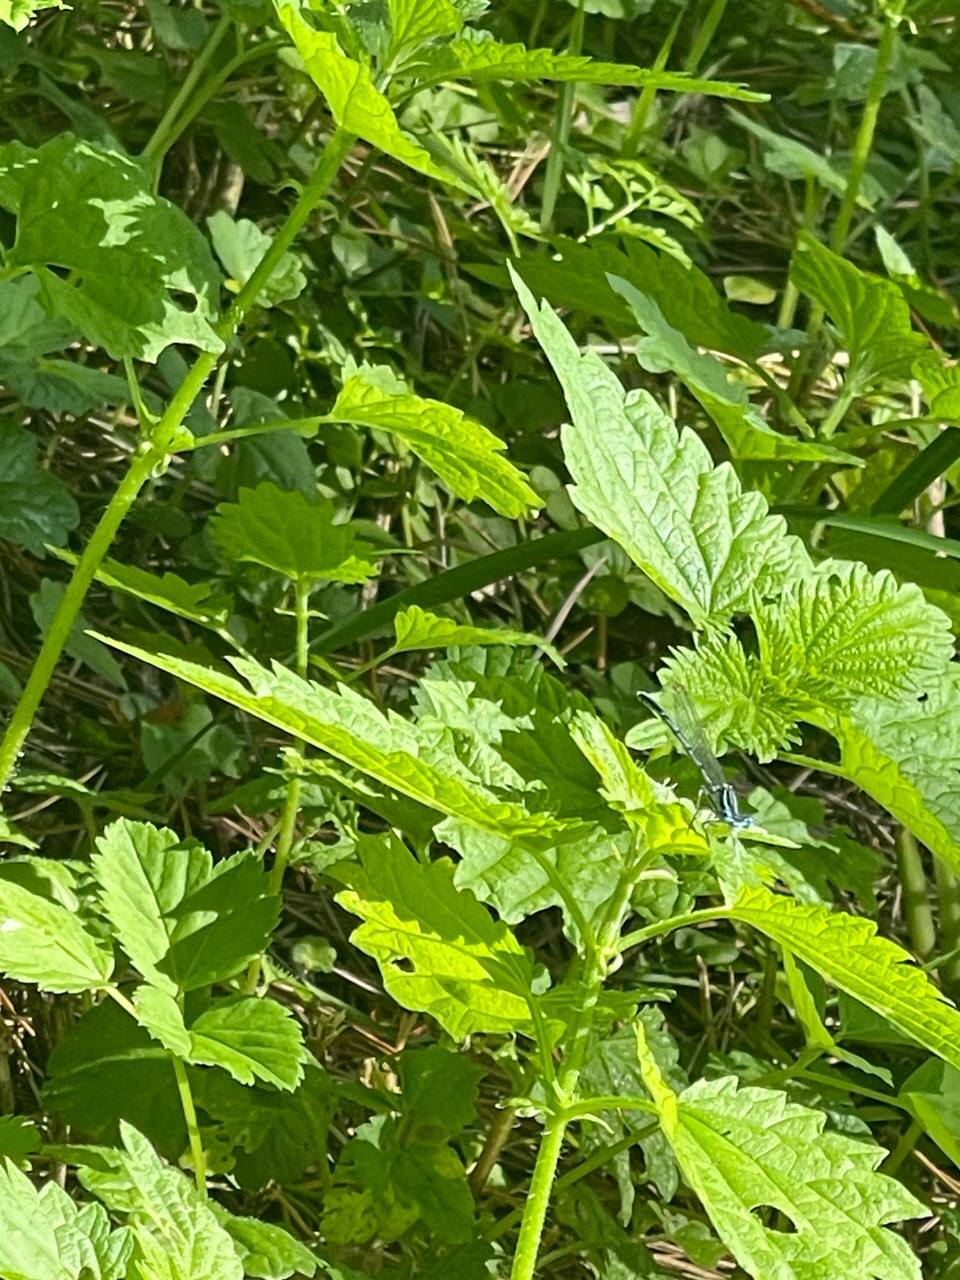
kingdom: Animalia
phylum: Arthropoda
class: Insecta
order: Odonata
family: Platycnemididae
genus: Platycnemis
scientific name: Platycnemis pennipes
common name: White-legged damselfly
